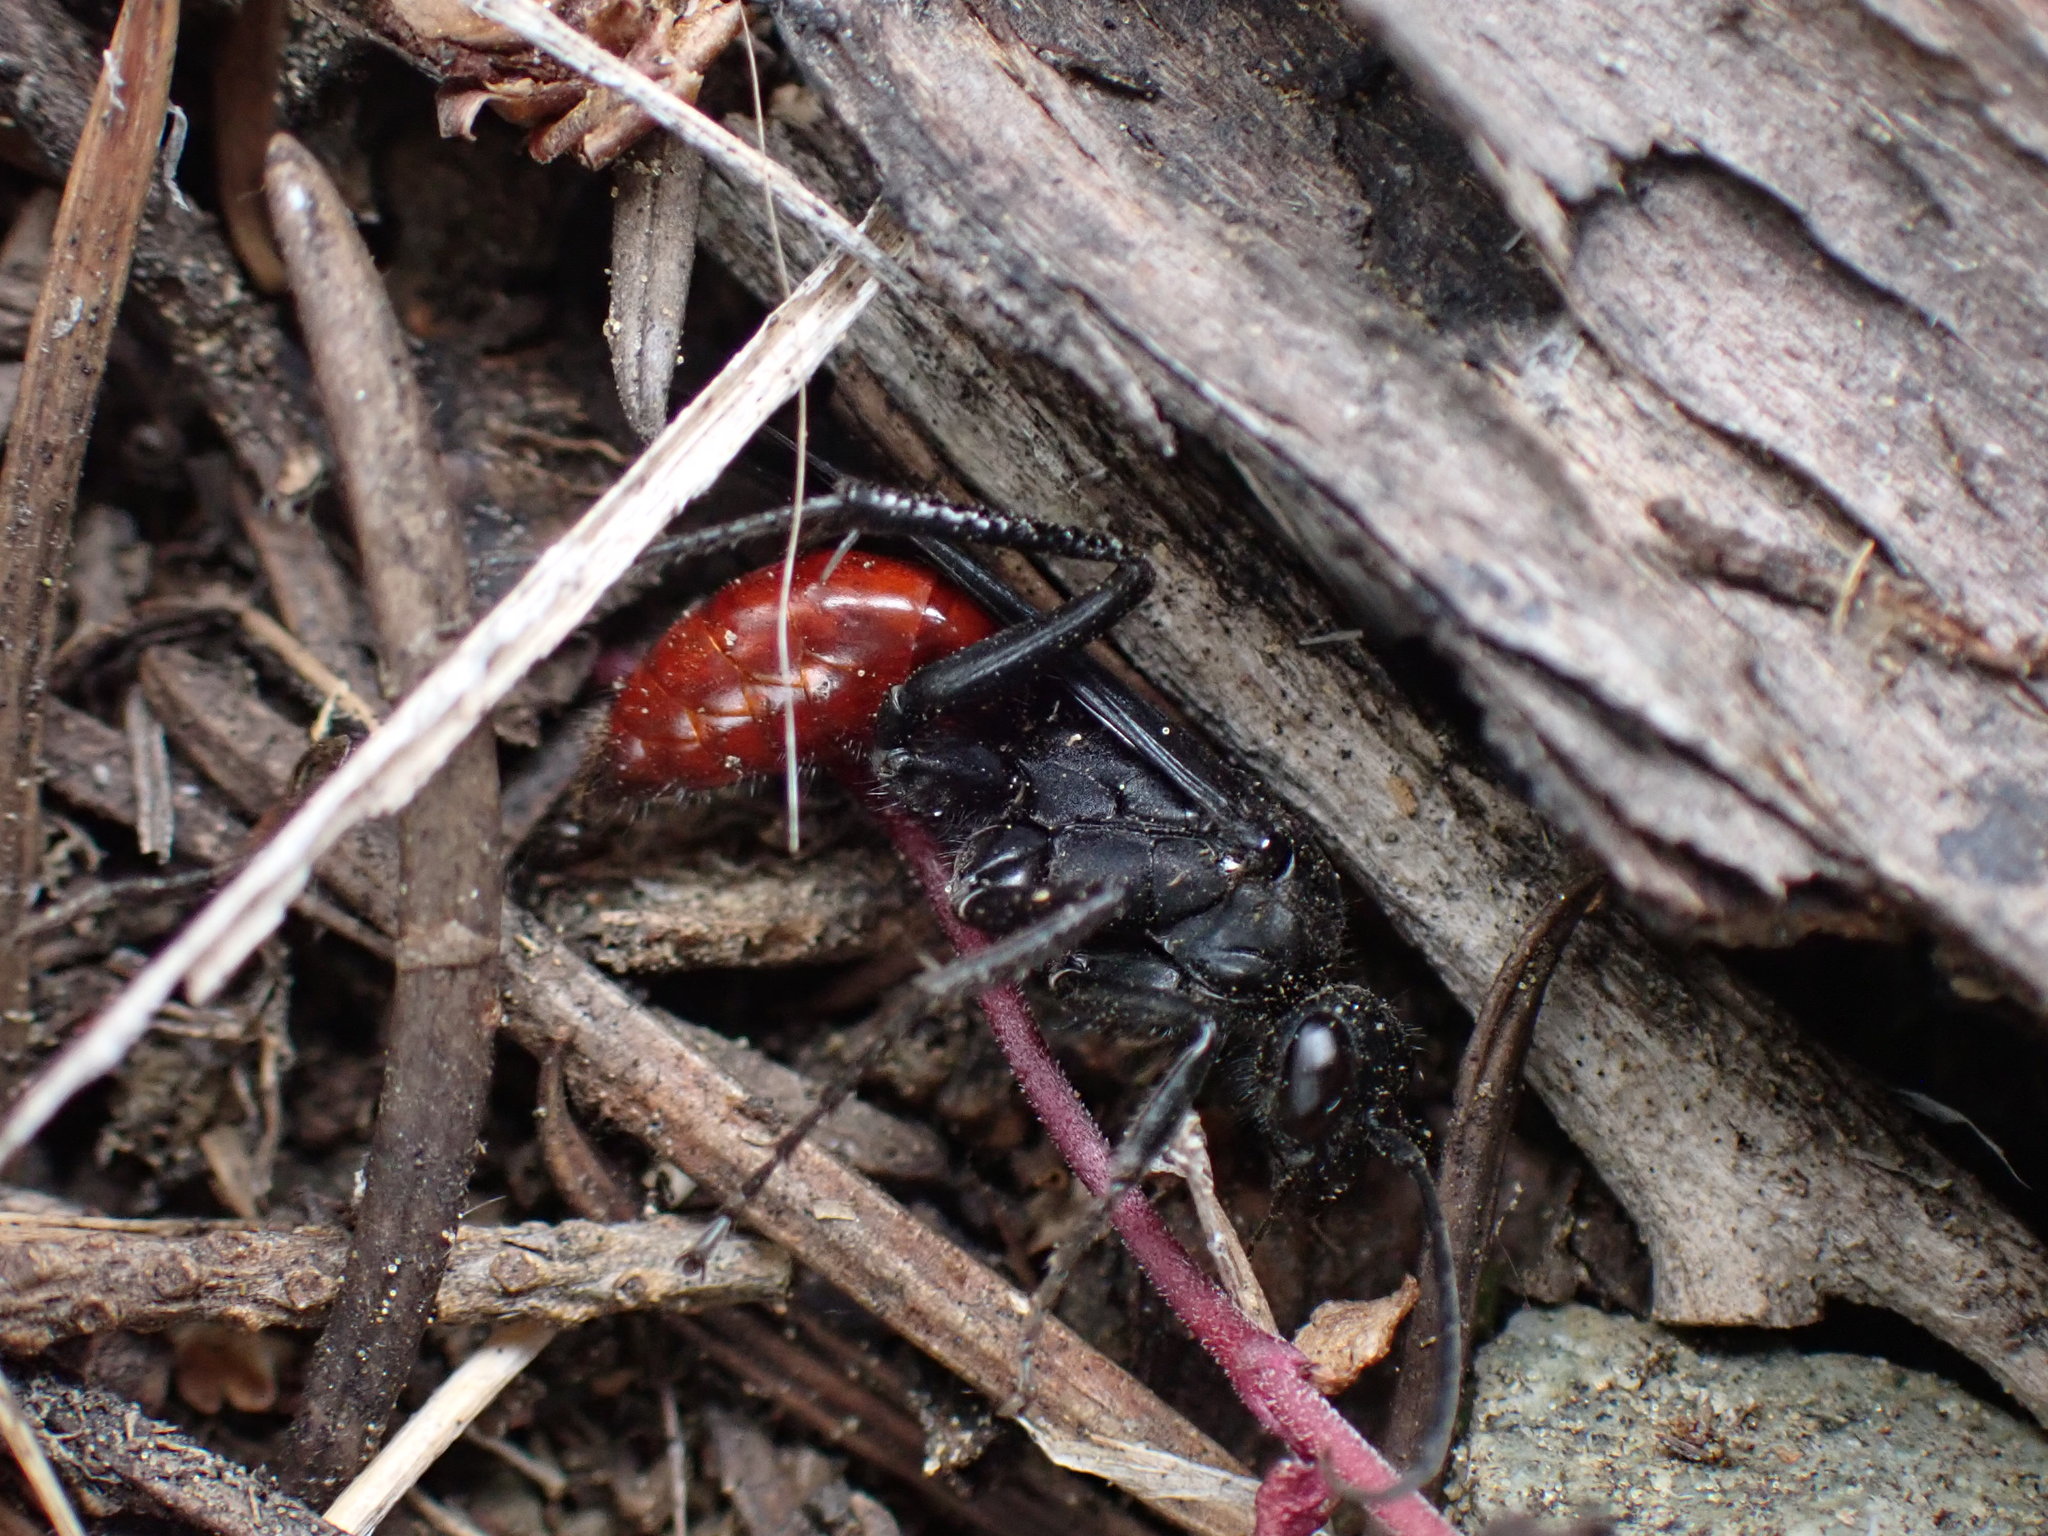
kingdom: Animalia
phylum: Arthropoda
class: Insecta
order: Hymenoptera
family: Pompilidae
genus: Priocnemis
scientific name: Priocnemis oregona
